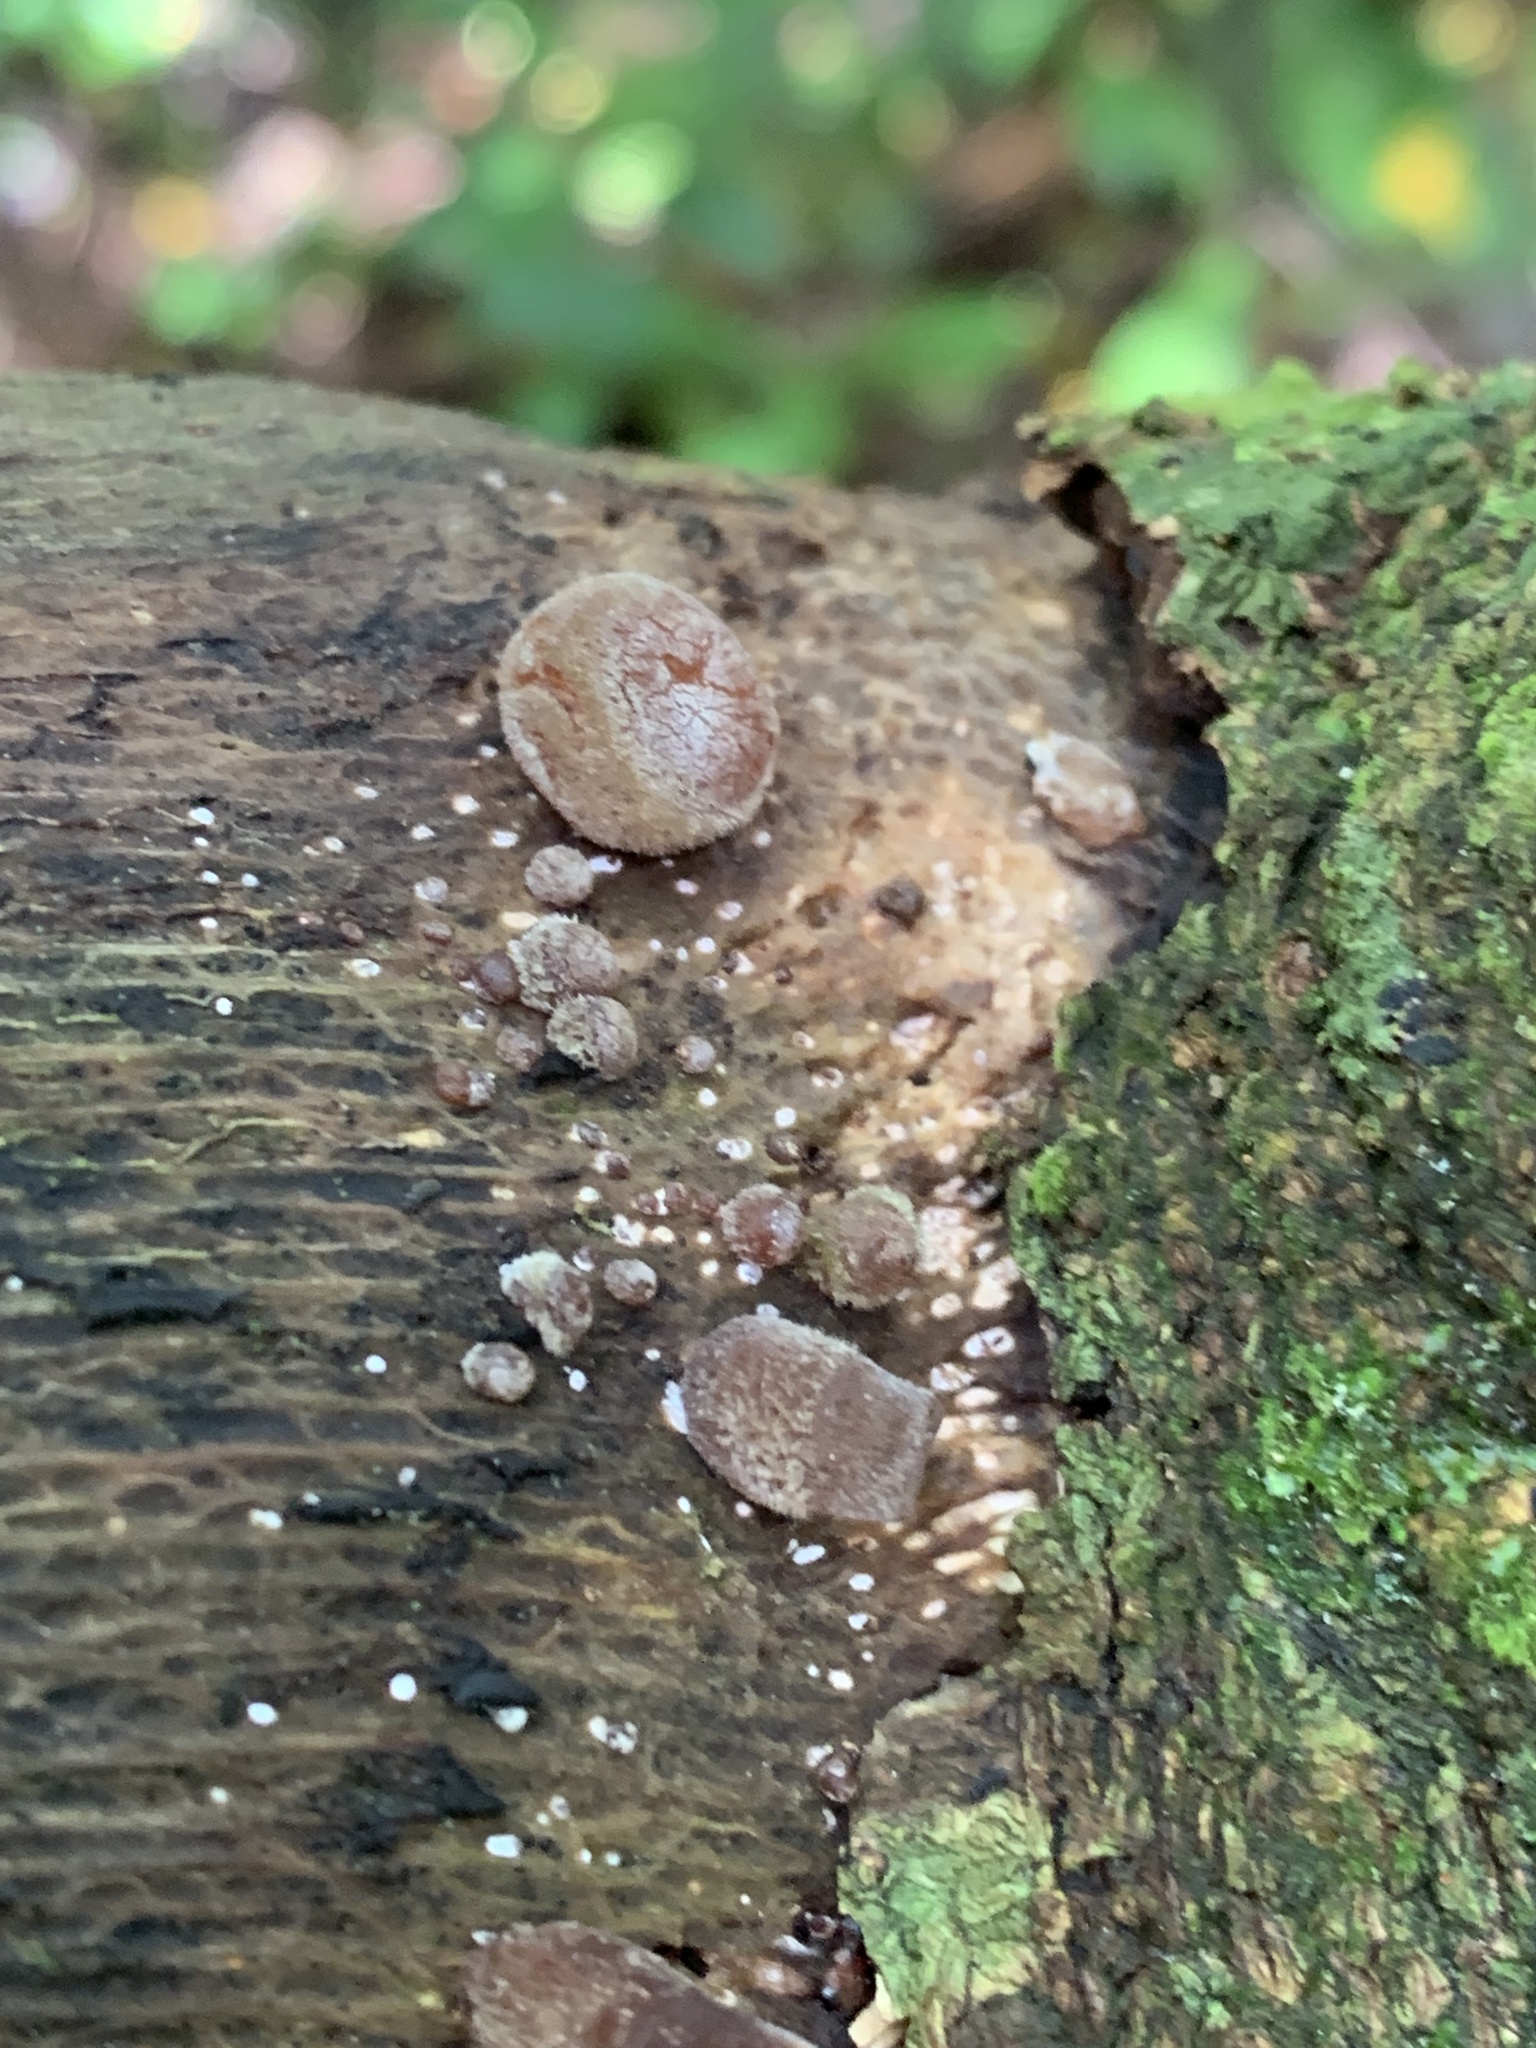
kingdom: Fungi
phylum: Basidiomycota
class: Agaricomycetes
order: Auriculariales
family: Auriculariaceae
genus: Auricularia
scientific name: Auricularia cornea
